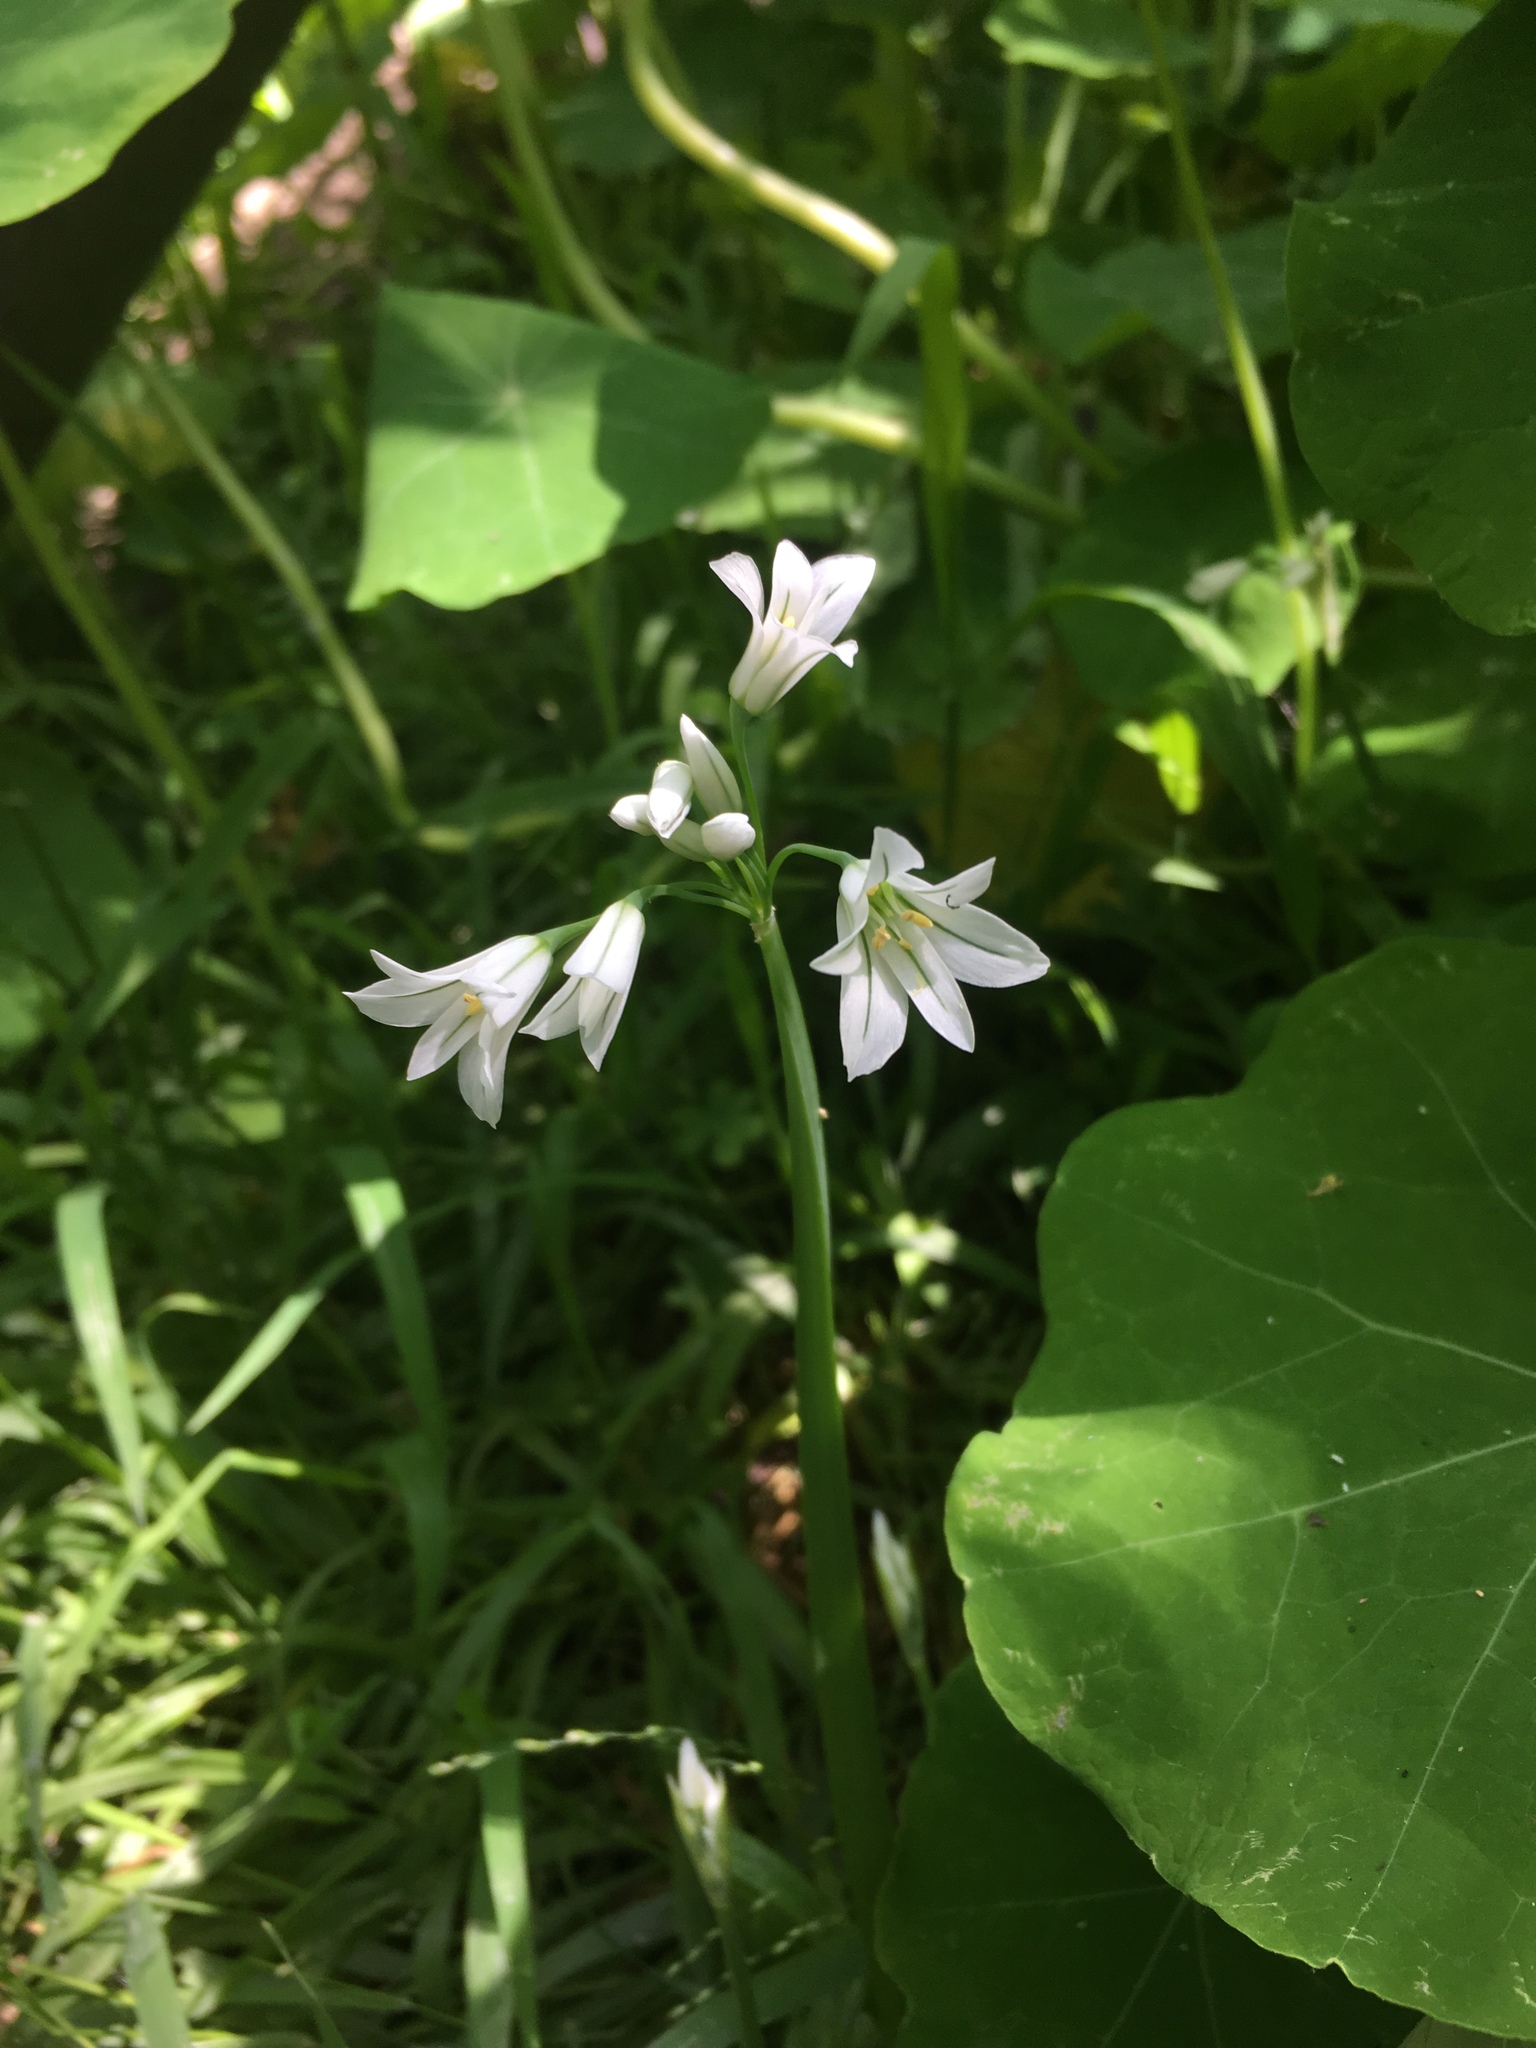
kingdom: Plantae
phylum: Tracheophyta
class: Liliopsida
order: Asparagales
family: Amaryllidaceae
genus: Allium
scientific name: Allium triquetrum
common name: Three-cornered garlic
